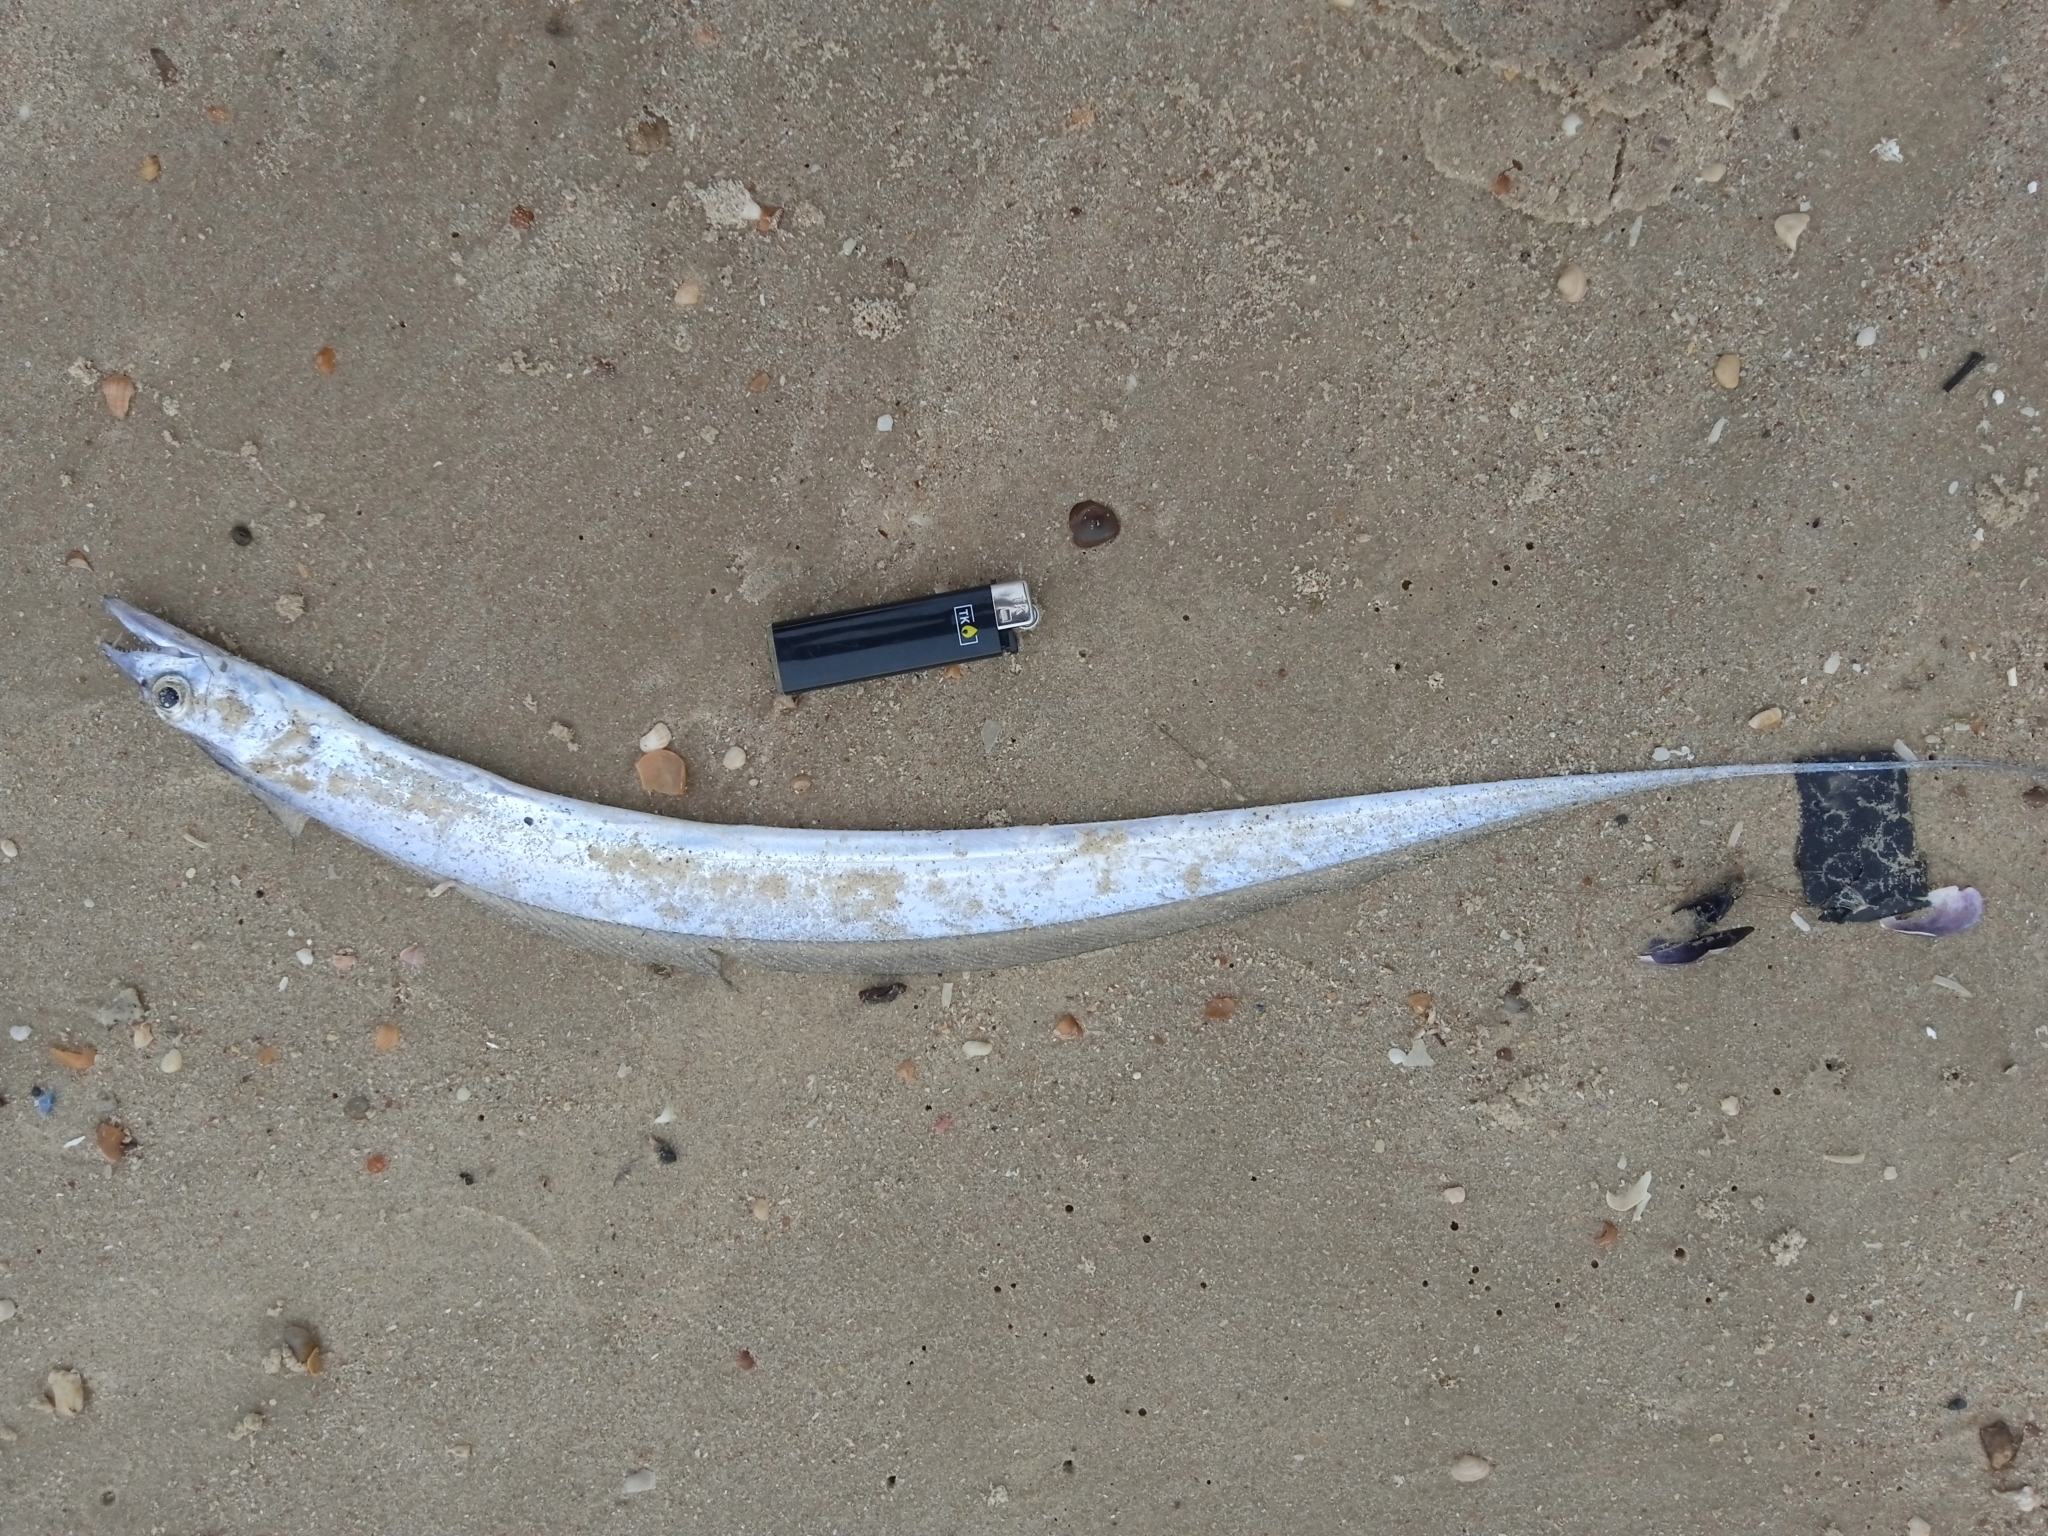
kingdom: Animalia
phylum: Chordata
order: Perciformes
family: Trichiuridae
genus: Trichiurus
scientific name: Trichiurus lepturus
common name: Largehead hairtail
